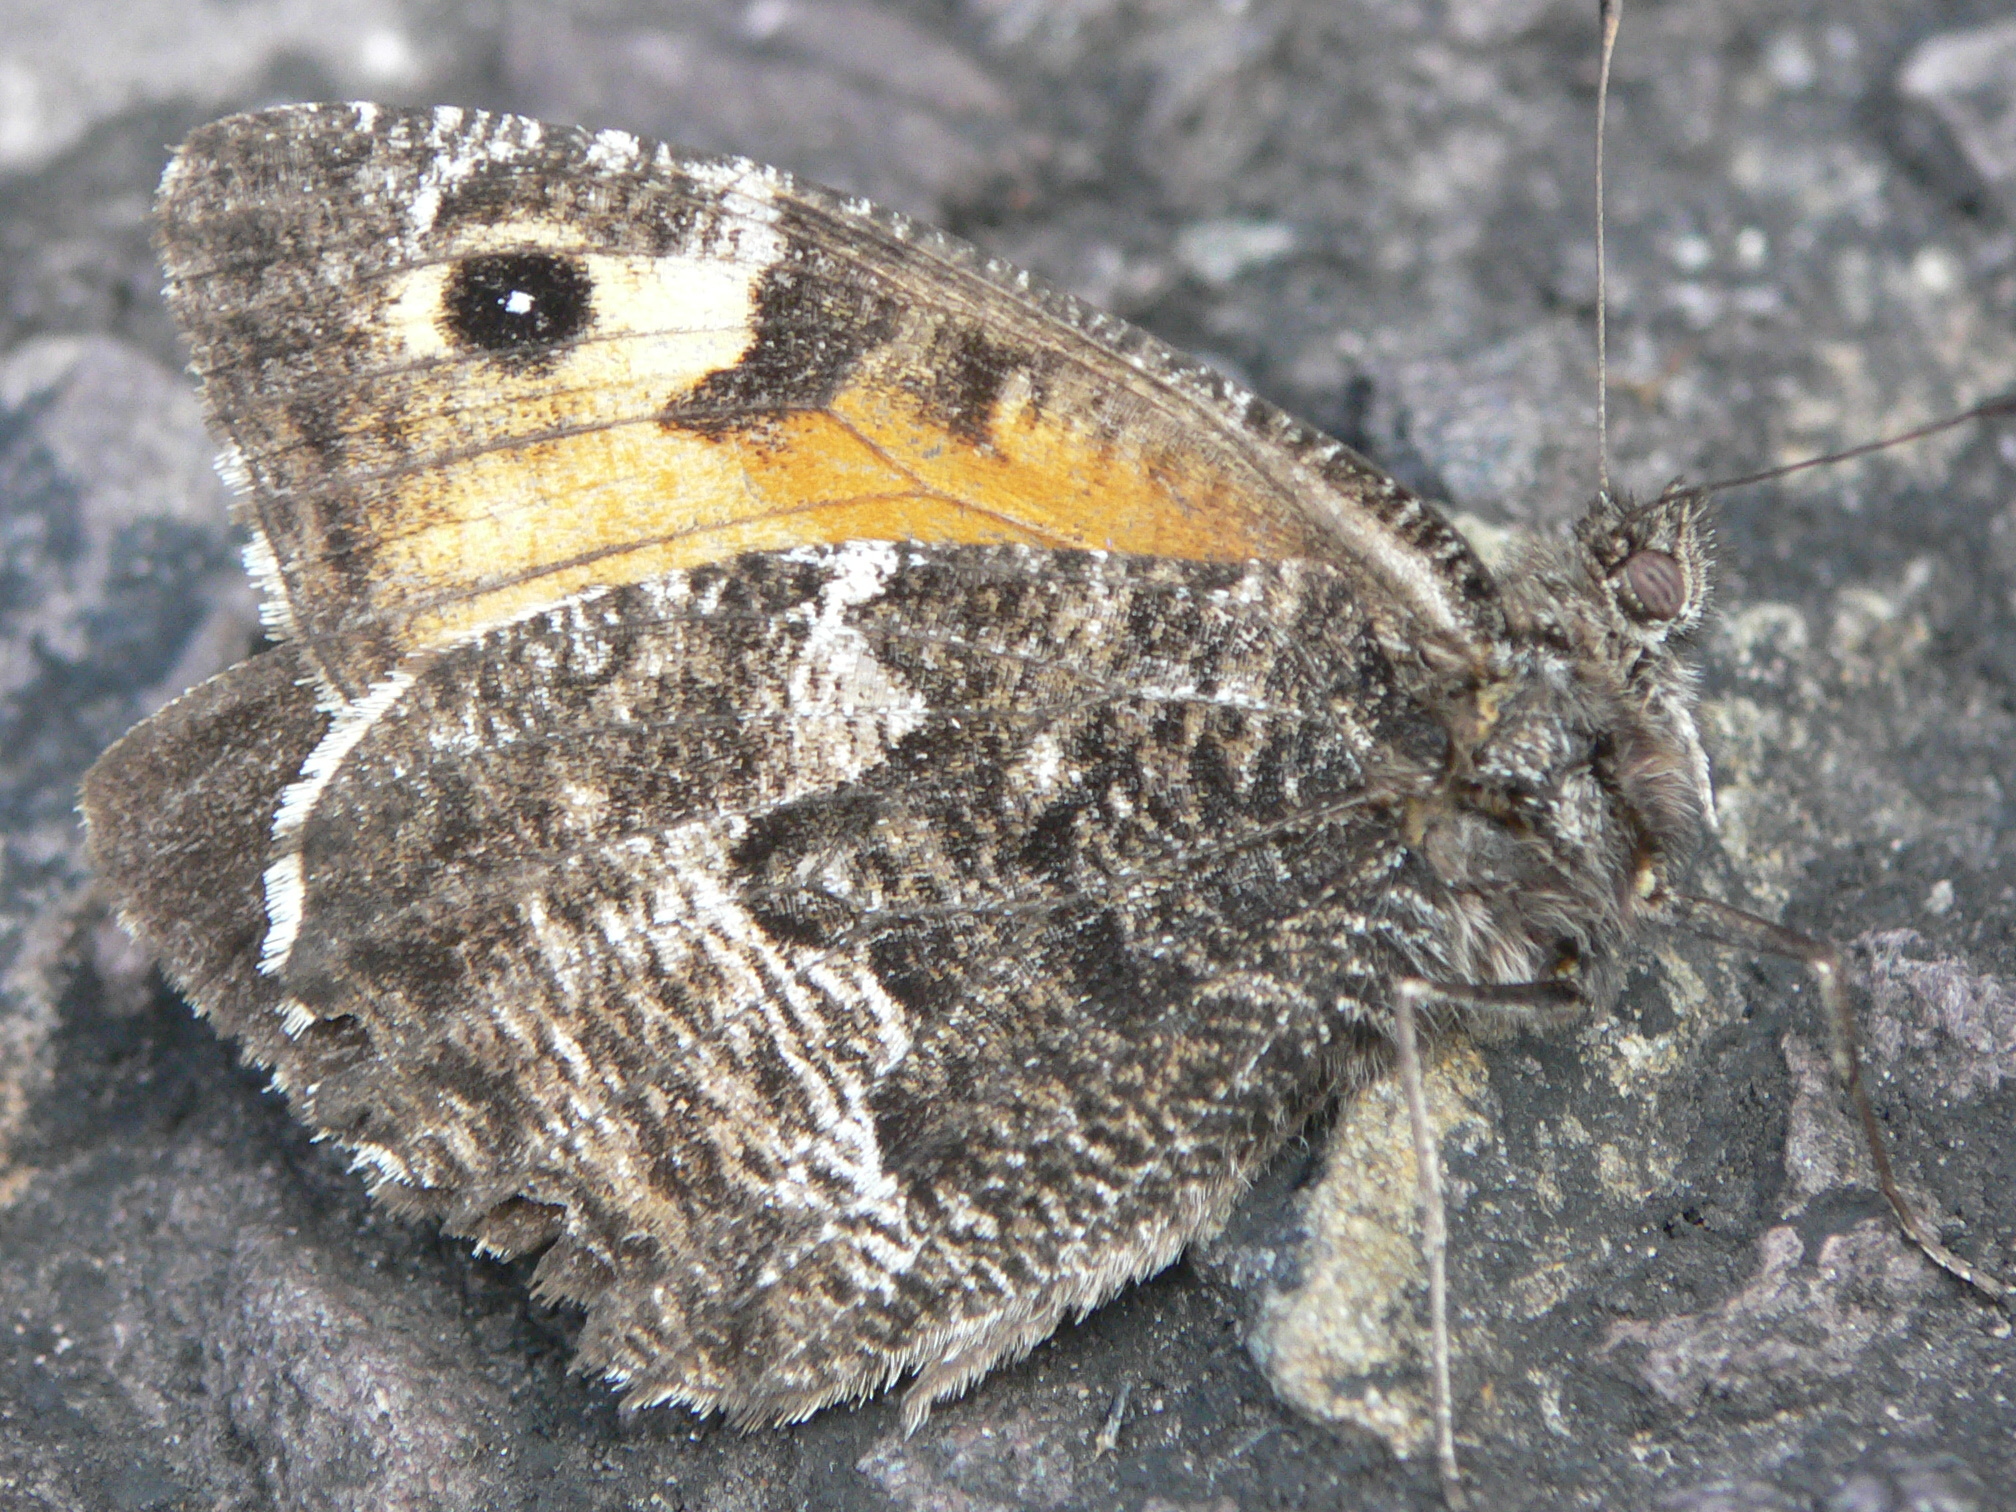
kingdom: Animalia
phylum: Arthropoda
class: Insecta
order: Lepidoptera
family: Nymphalidae
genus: Hipparchia
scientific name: Hipparchia semele
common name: Grayling
